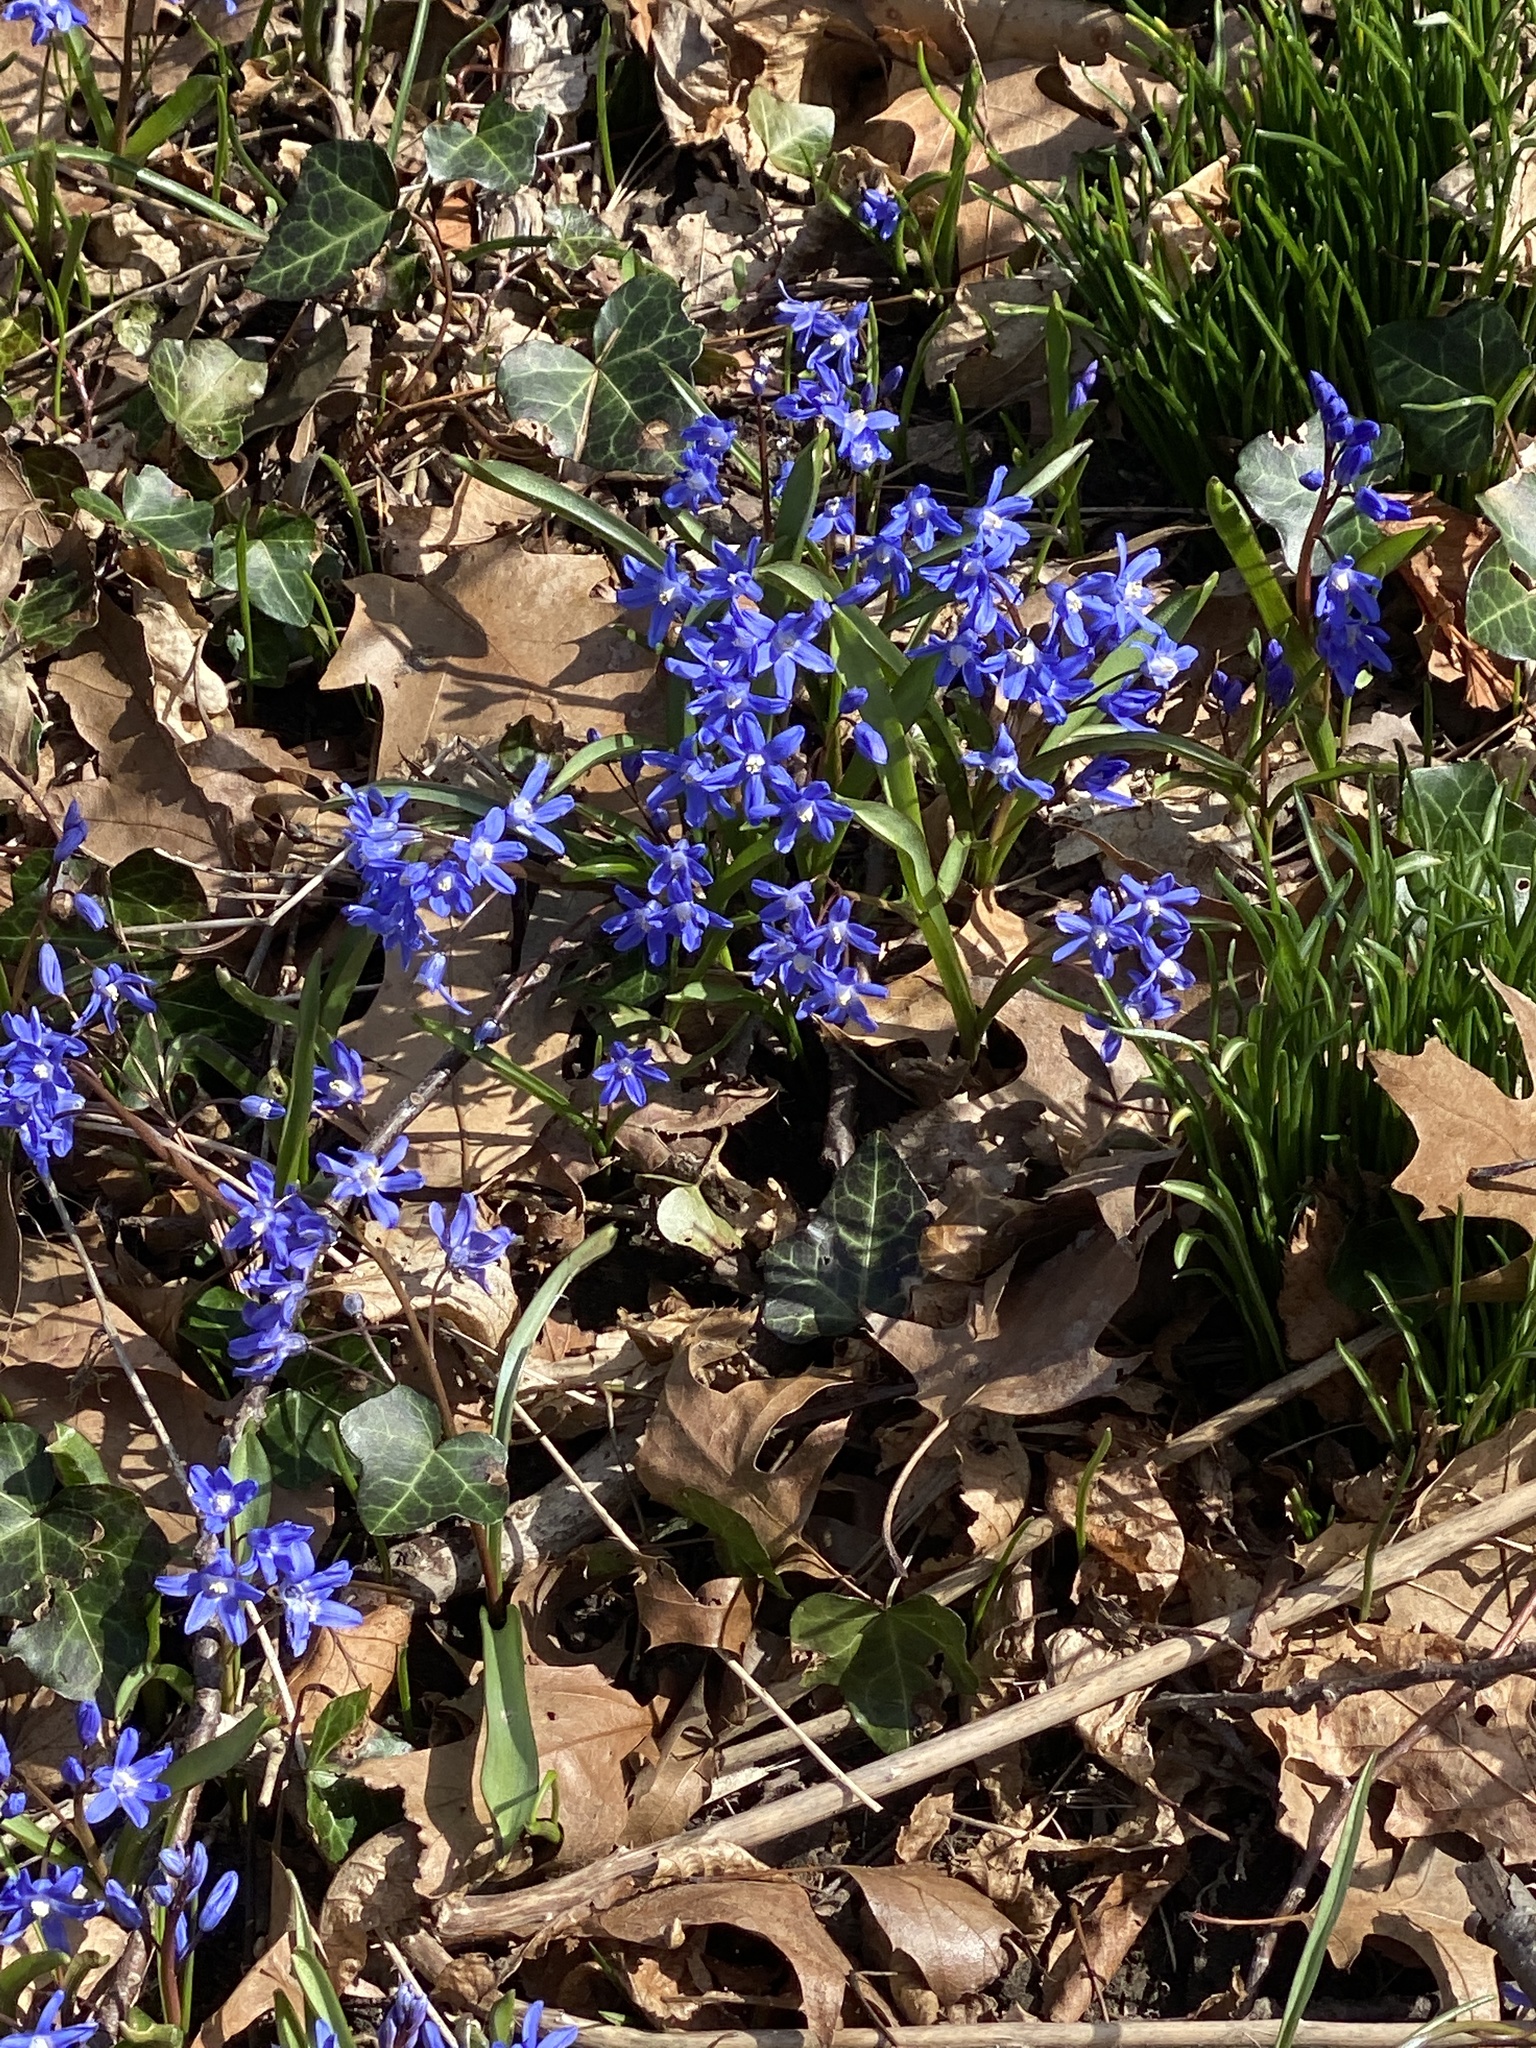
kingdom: Plantae
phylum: Tracheophyta
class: Liliopsida
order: Asparagales
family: Asparagaceae
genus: Scilla
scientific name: Scilla sardensis
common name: Lesser glory-of-the-snow
